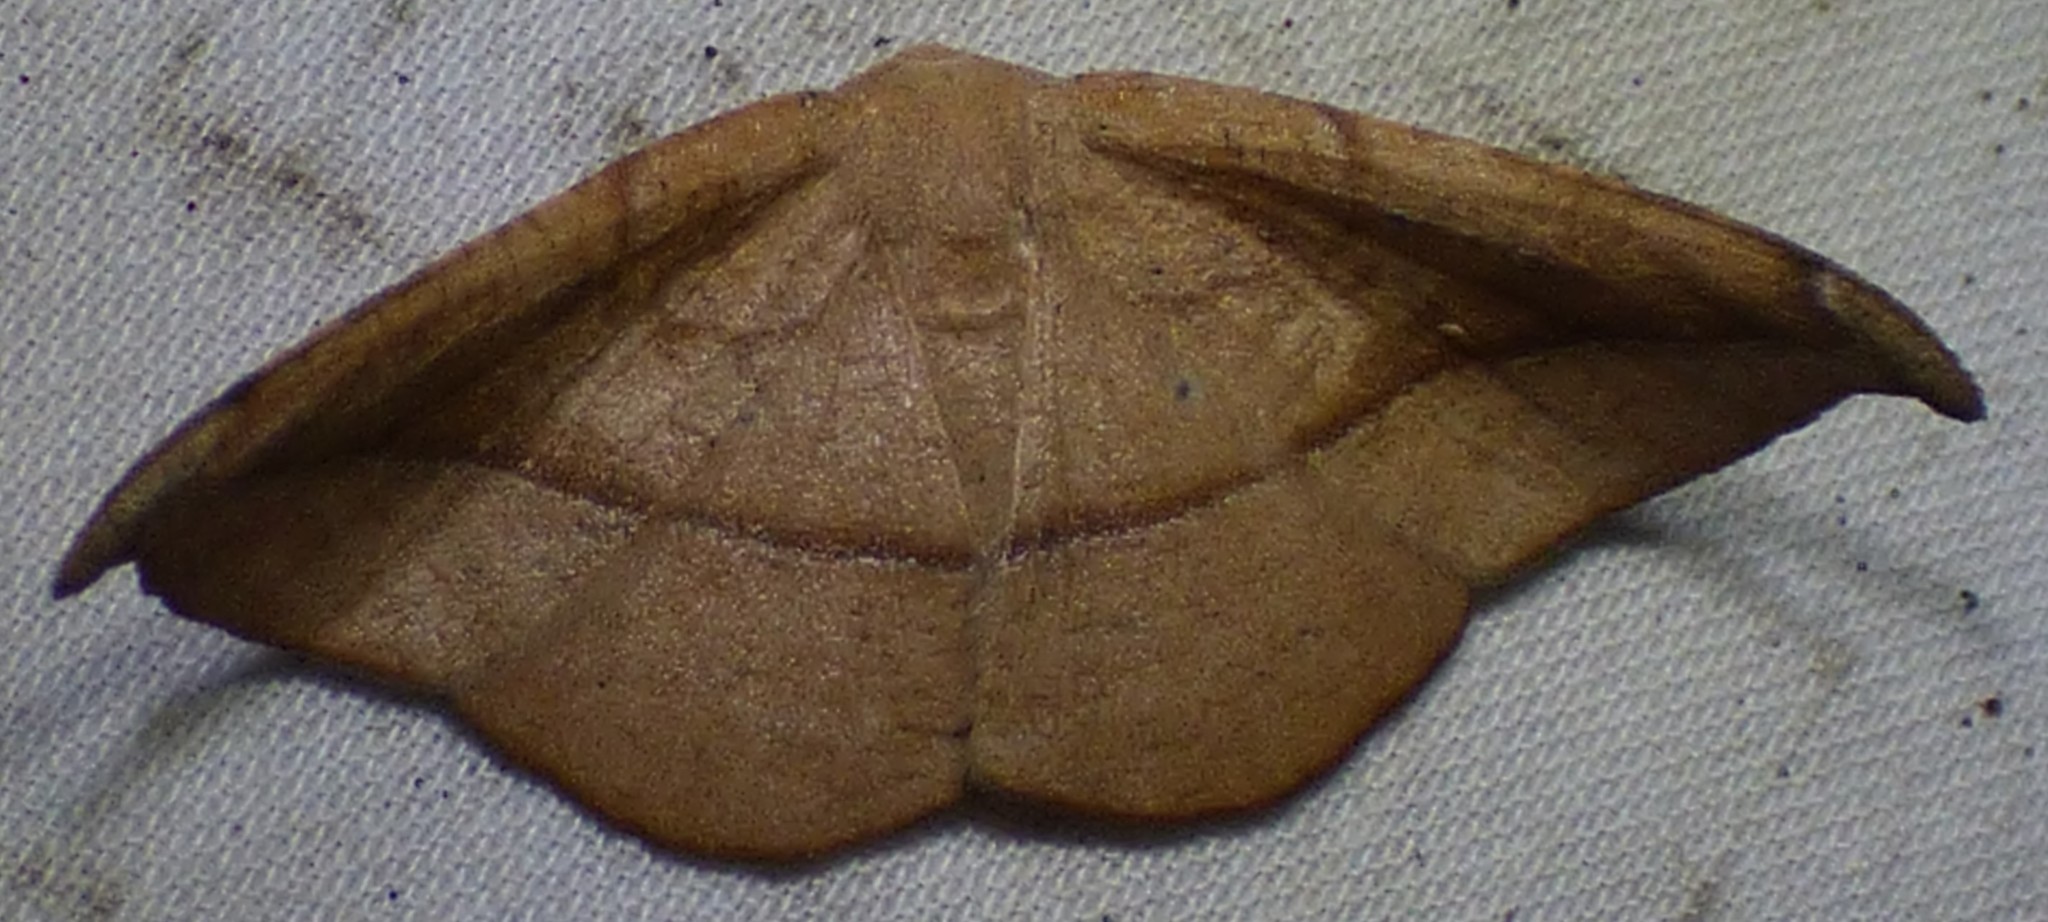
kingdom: Animalia
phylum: Arthropoda
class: Insecta
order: Lepidoptera
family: Geometridae
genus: Patalene
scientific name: Patalene olyzonaria
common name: Juniper geometer moth
